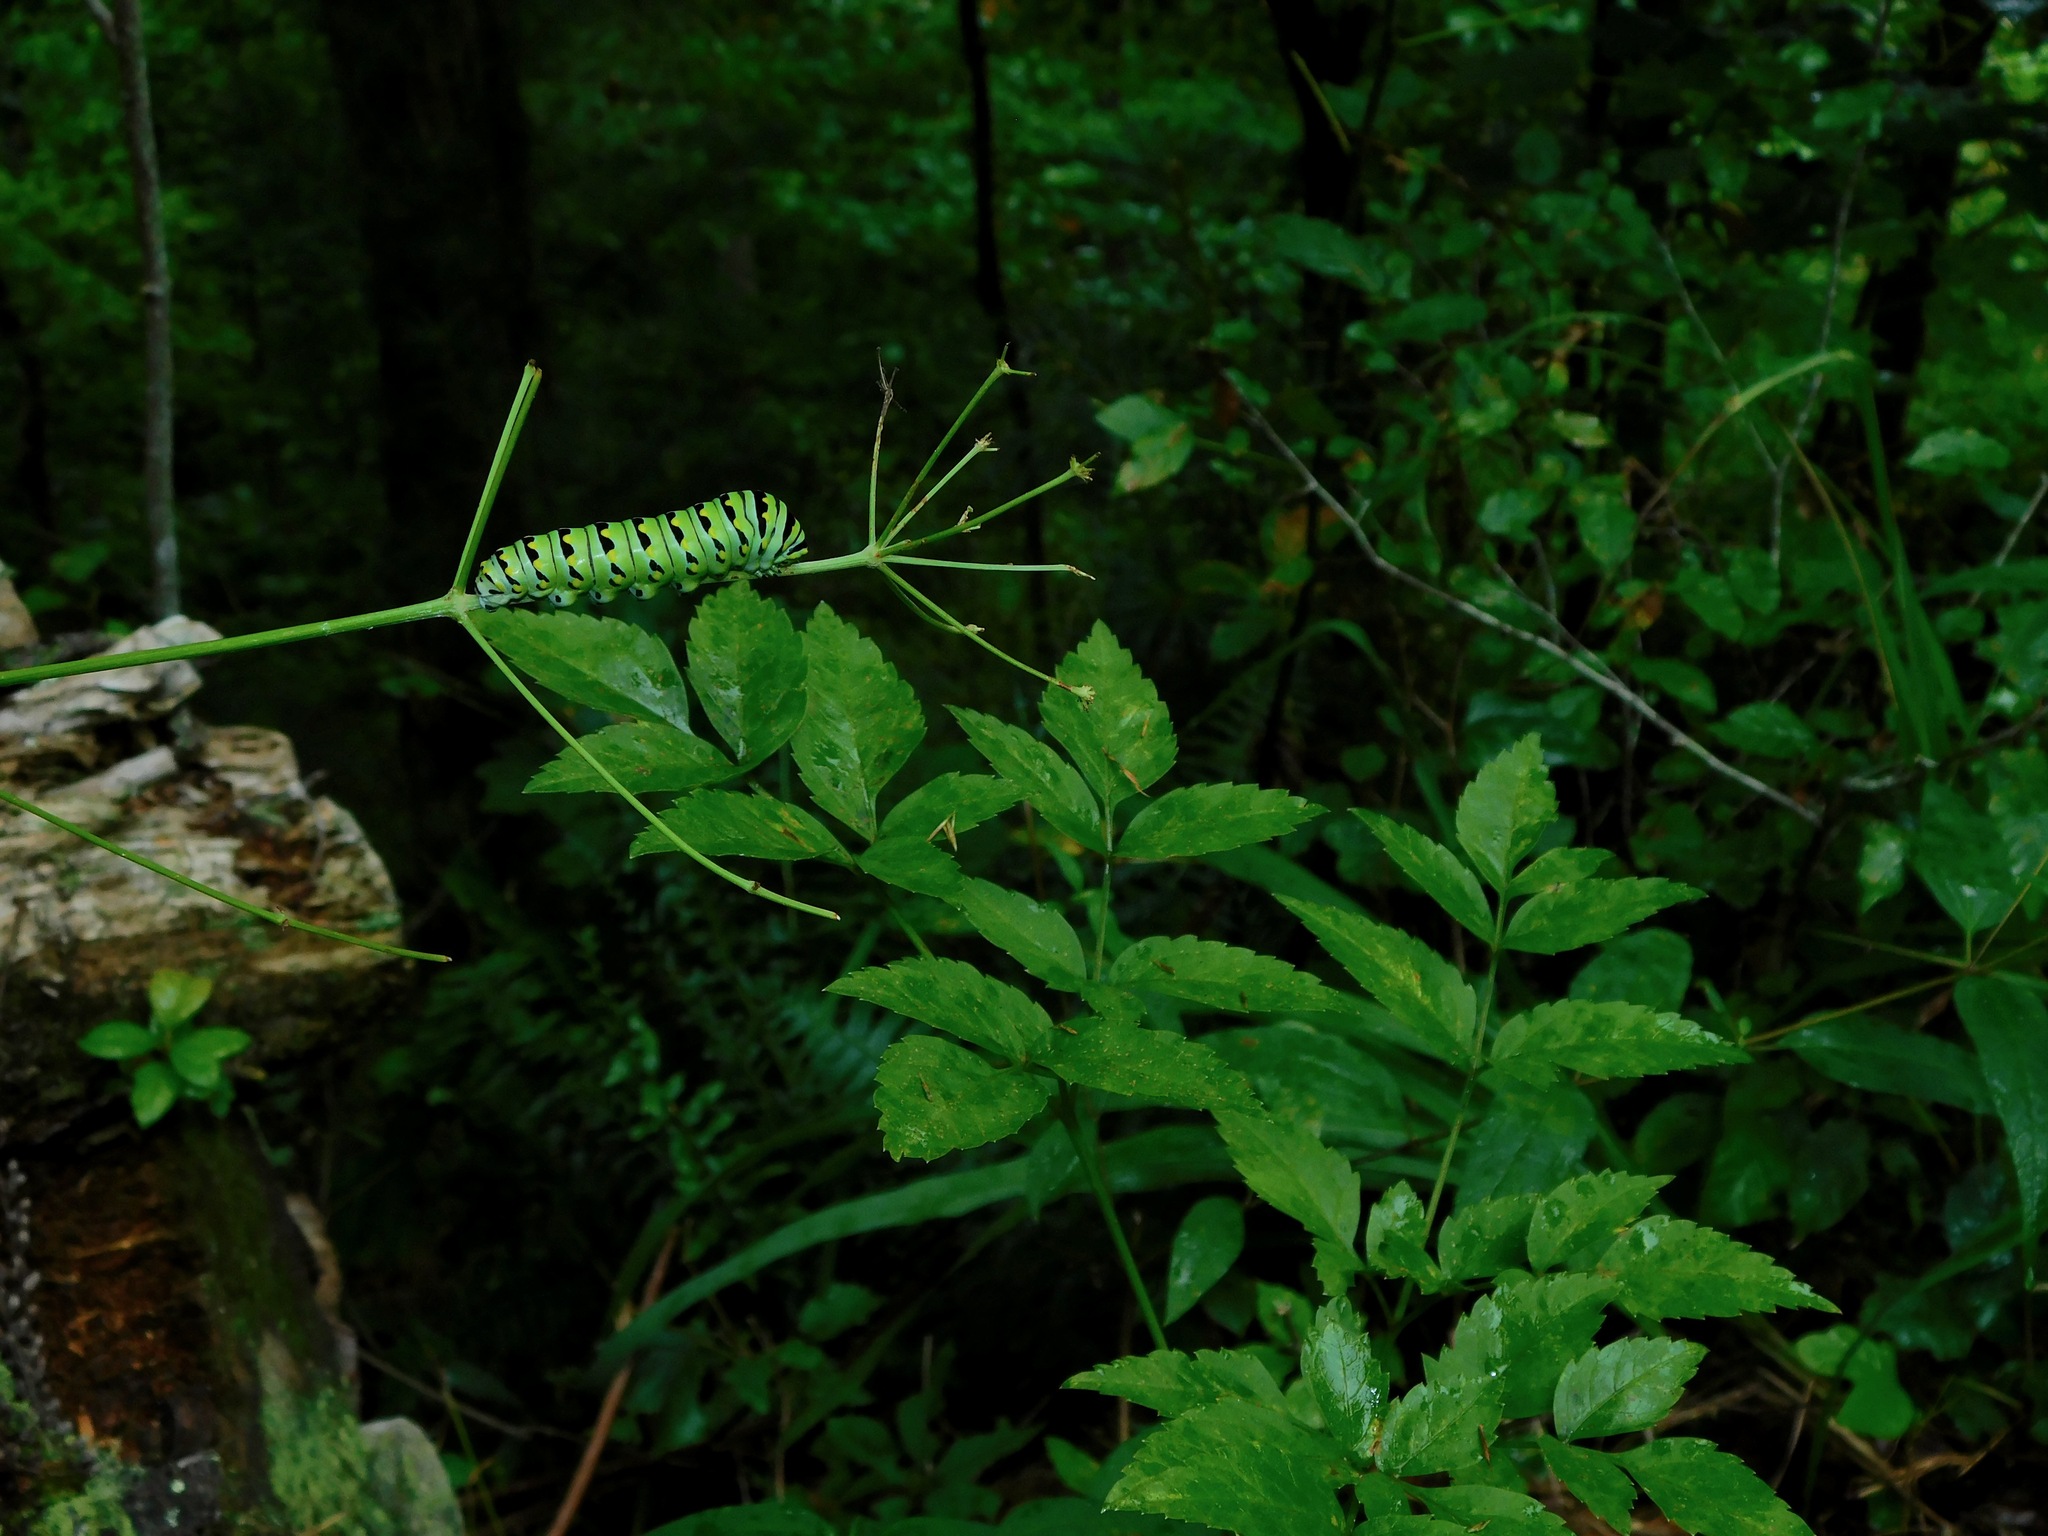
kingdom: Animalia
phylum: Arthropoda
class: Insecta
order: Lepidoptera
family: Papilionidae
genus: Papilio
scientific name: Papilio polyxenes
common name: Black swallowtail
